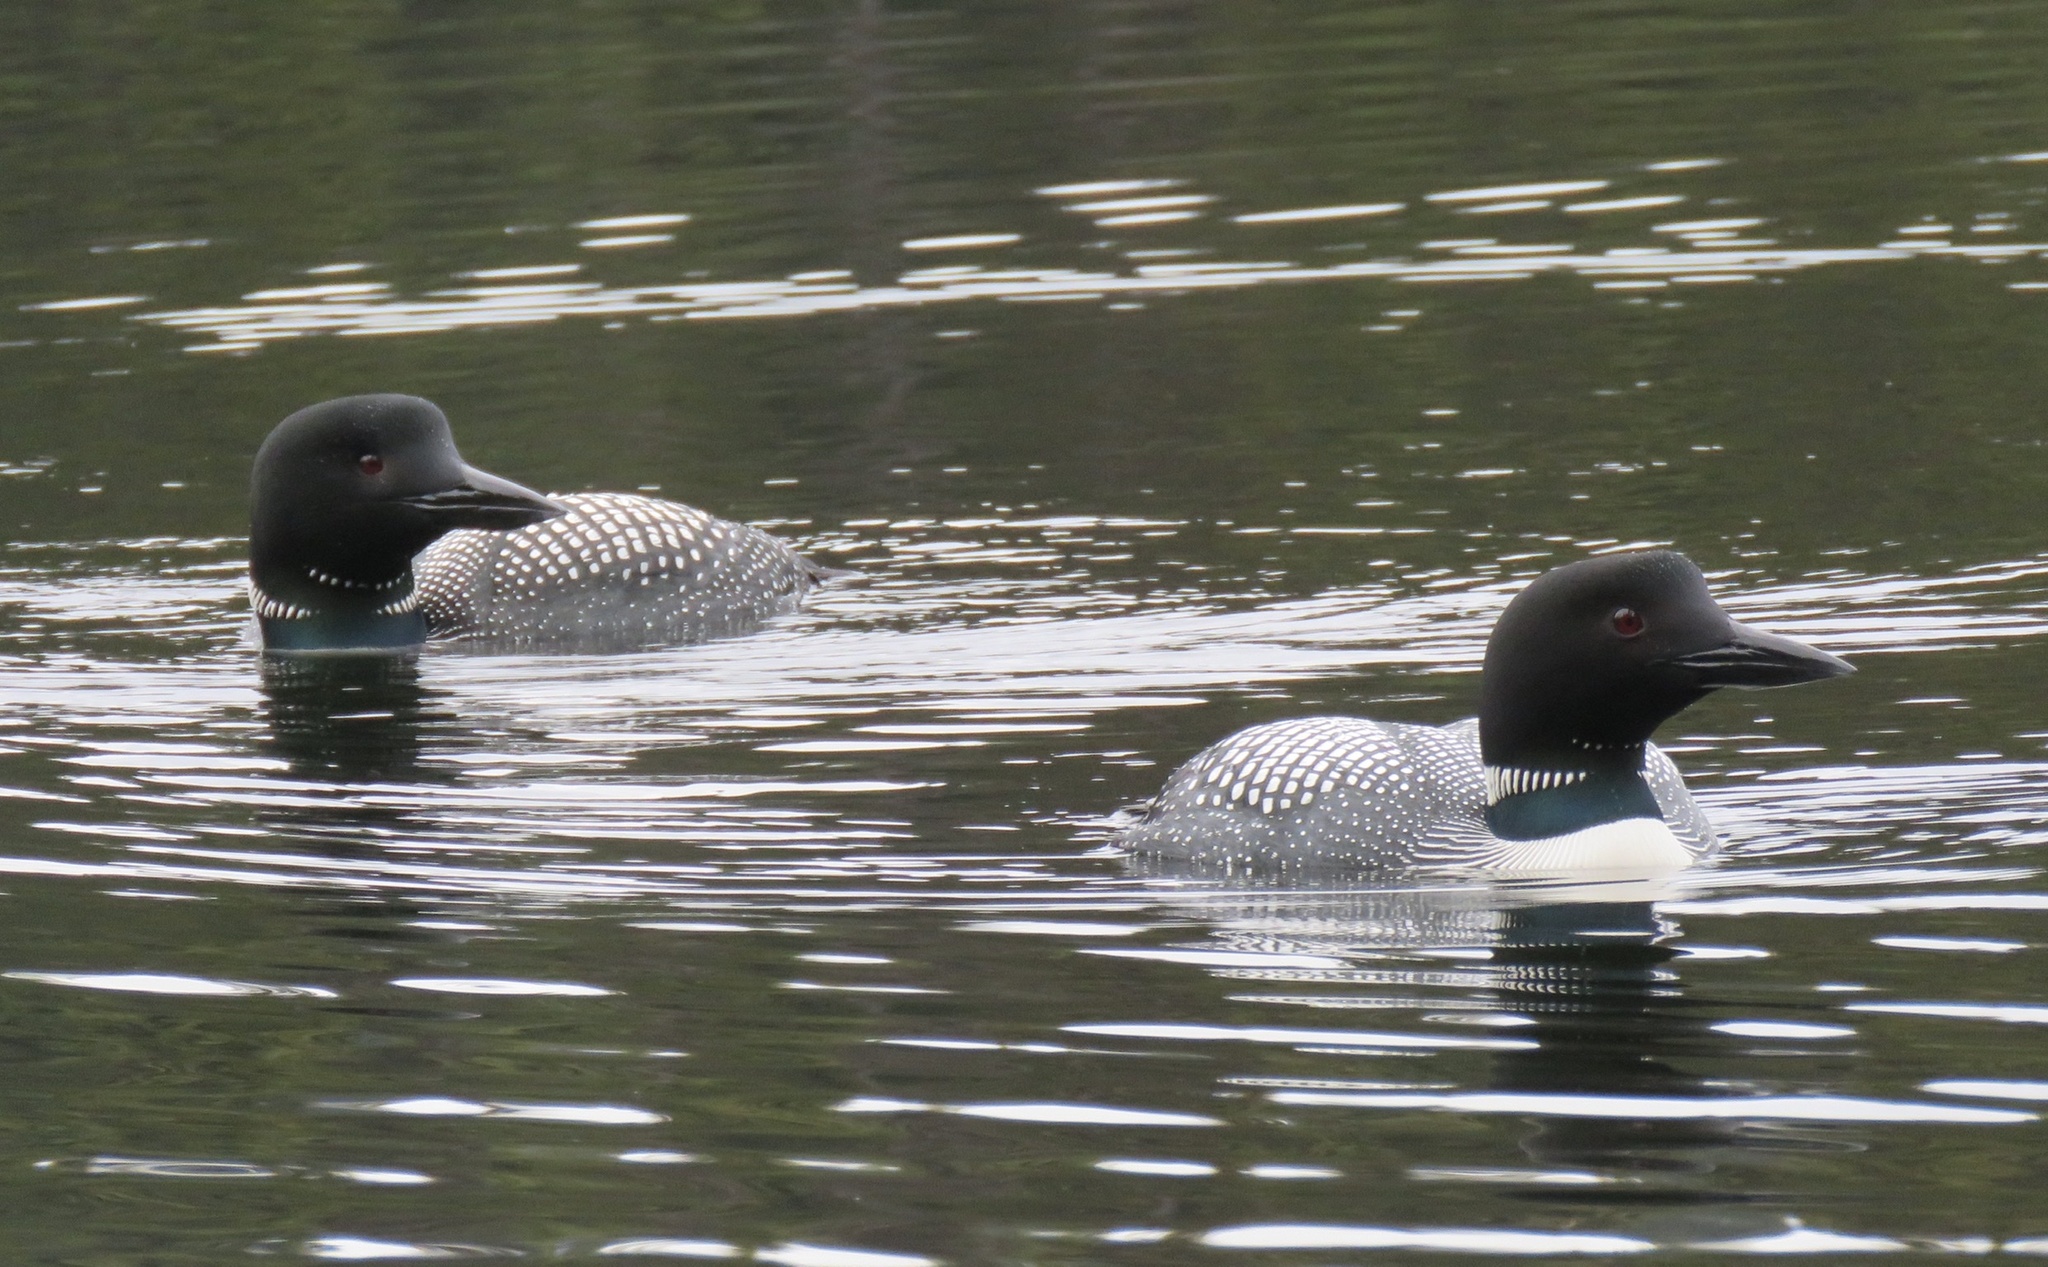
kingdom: Animalia
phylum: Chordata
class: Aves
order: Gaviiformes
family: Gaviidae
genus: Gavia
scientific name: Gavia immer
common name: Common loon
